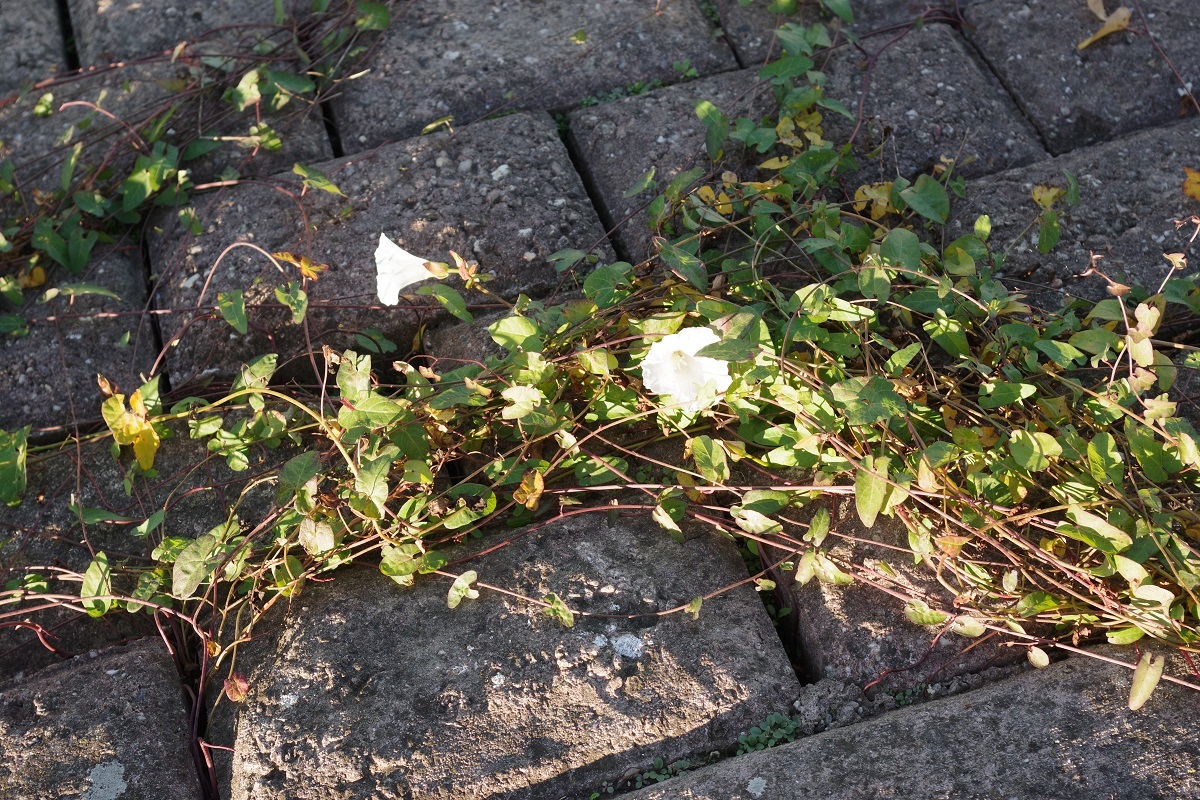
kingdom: Plantae
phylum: Tracheophyta
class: Magnoliopsida
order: Solanales
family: Convolvulaceae
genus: Calystegia
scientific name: Calystegia sepium
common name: Hedge bindweed
